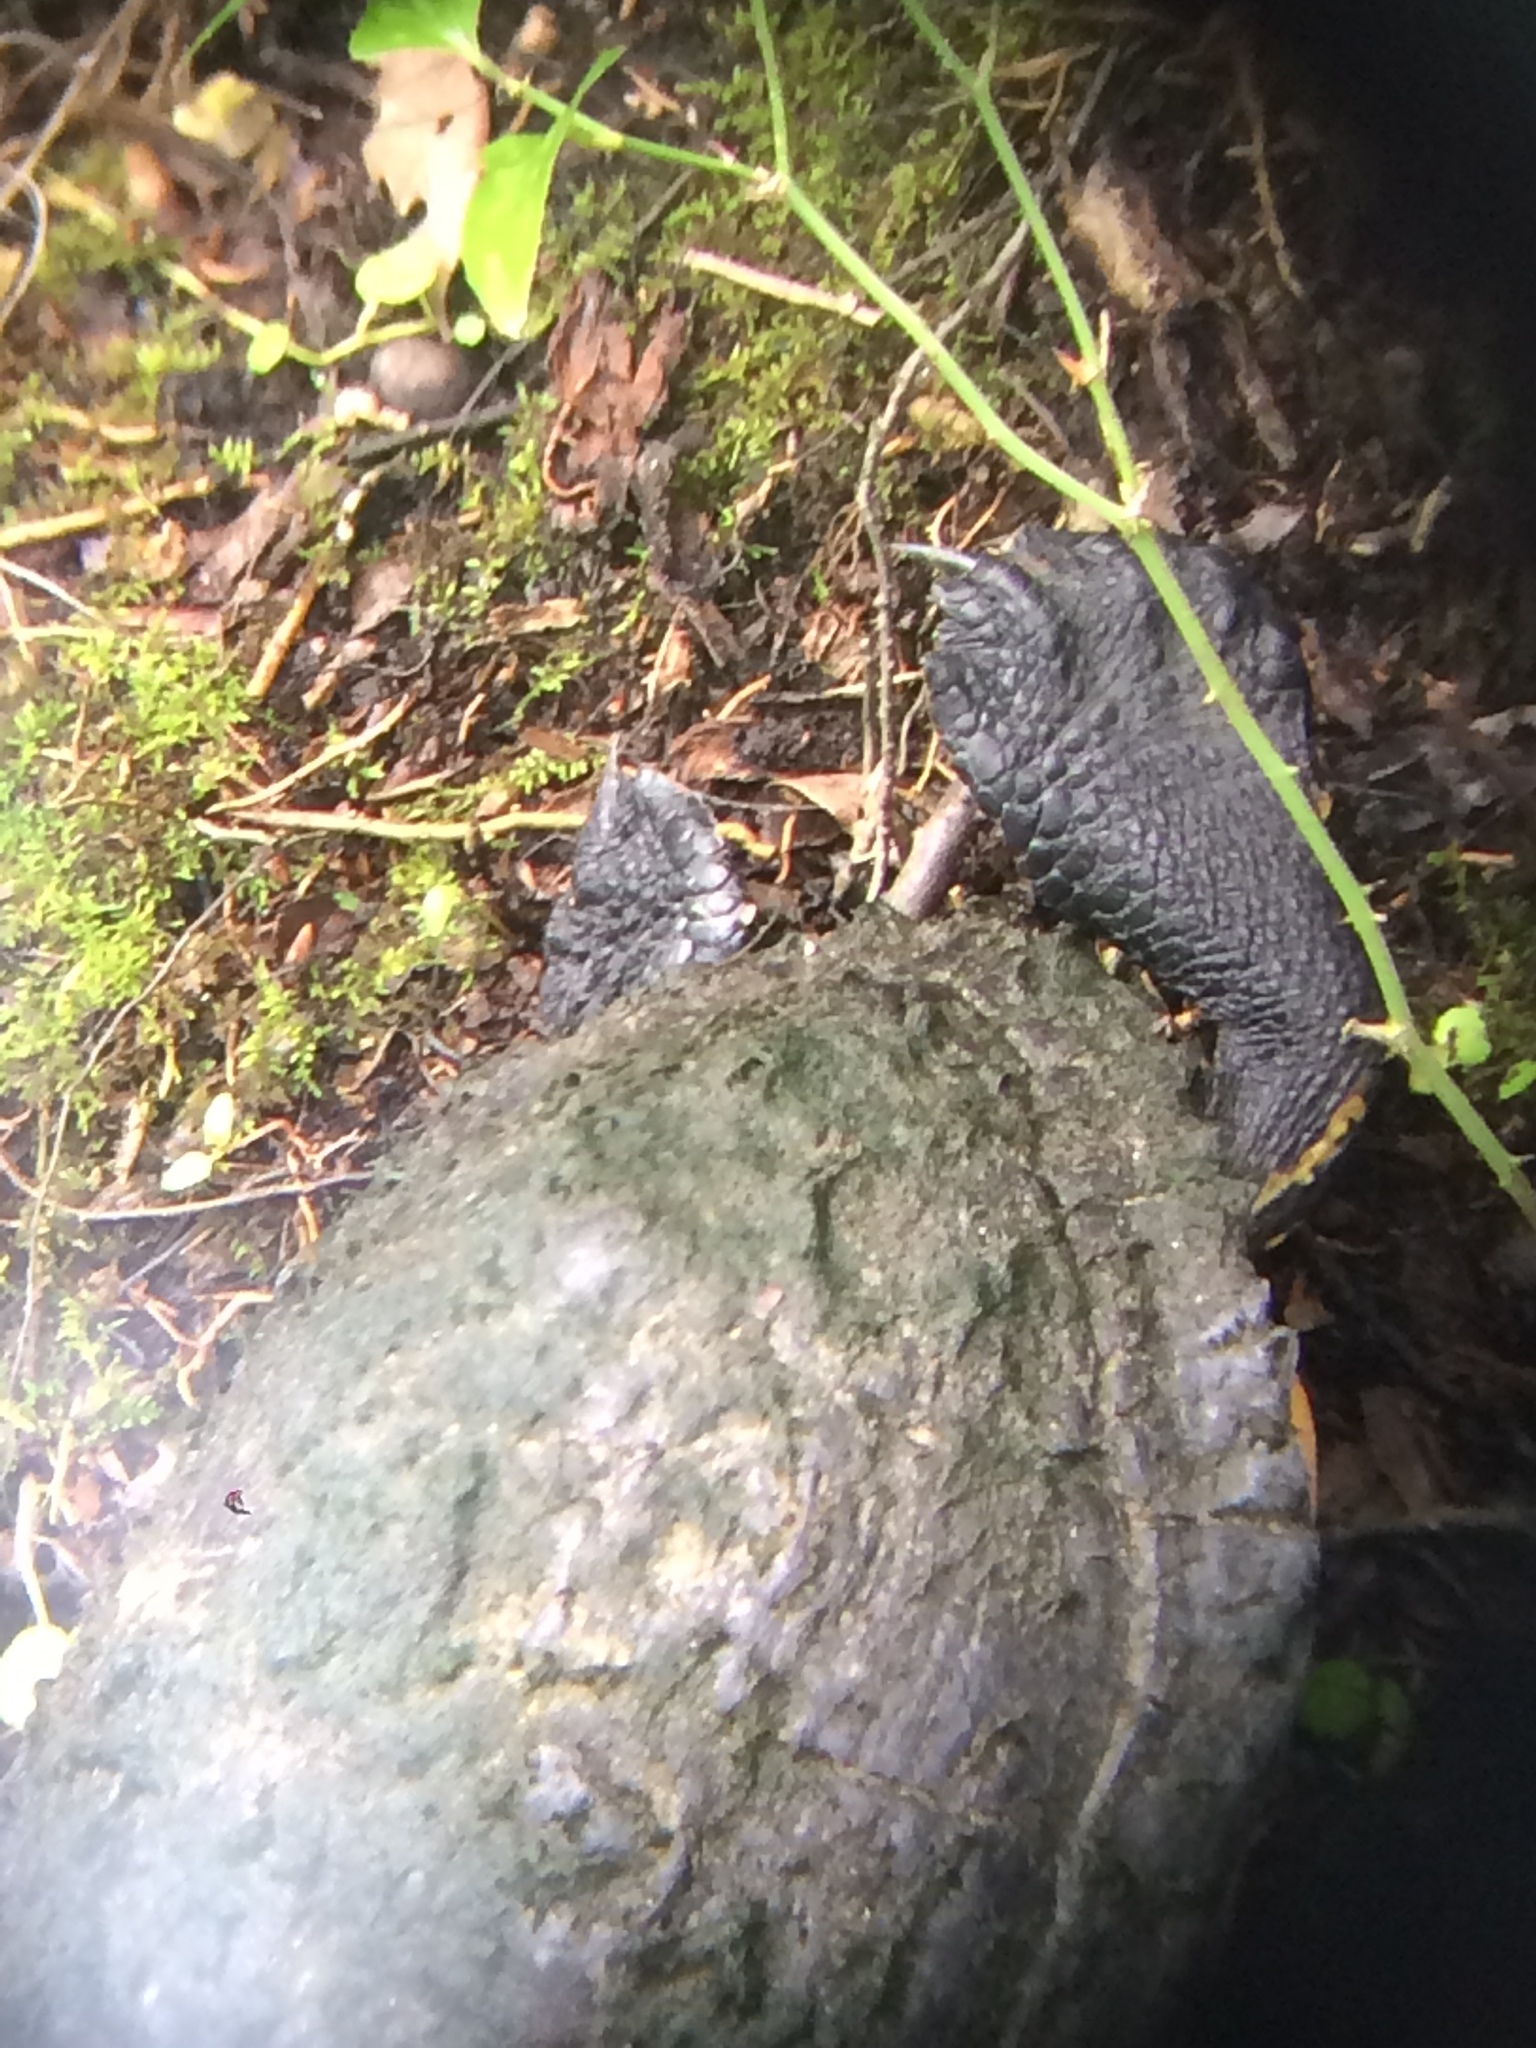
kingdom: Animalia
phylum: Chordata
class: Testudines
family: Emydidae
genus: Trachemys
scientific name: Trachemys scripta
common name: Slider
